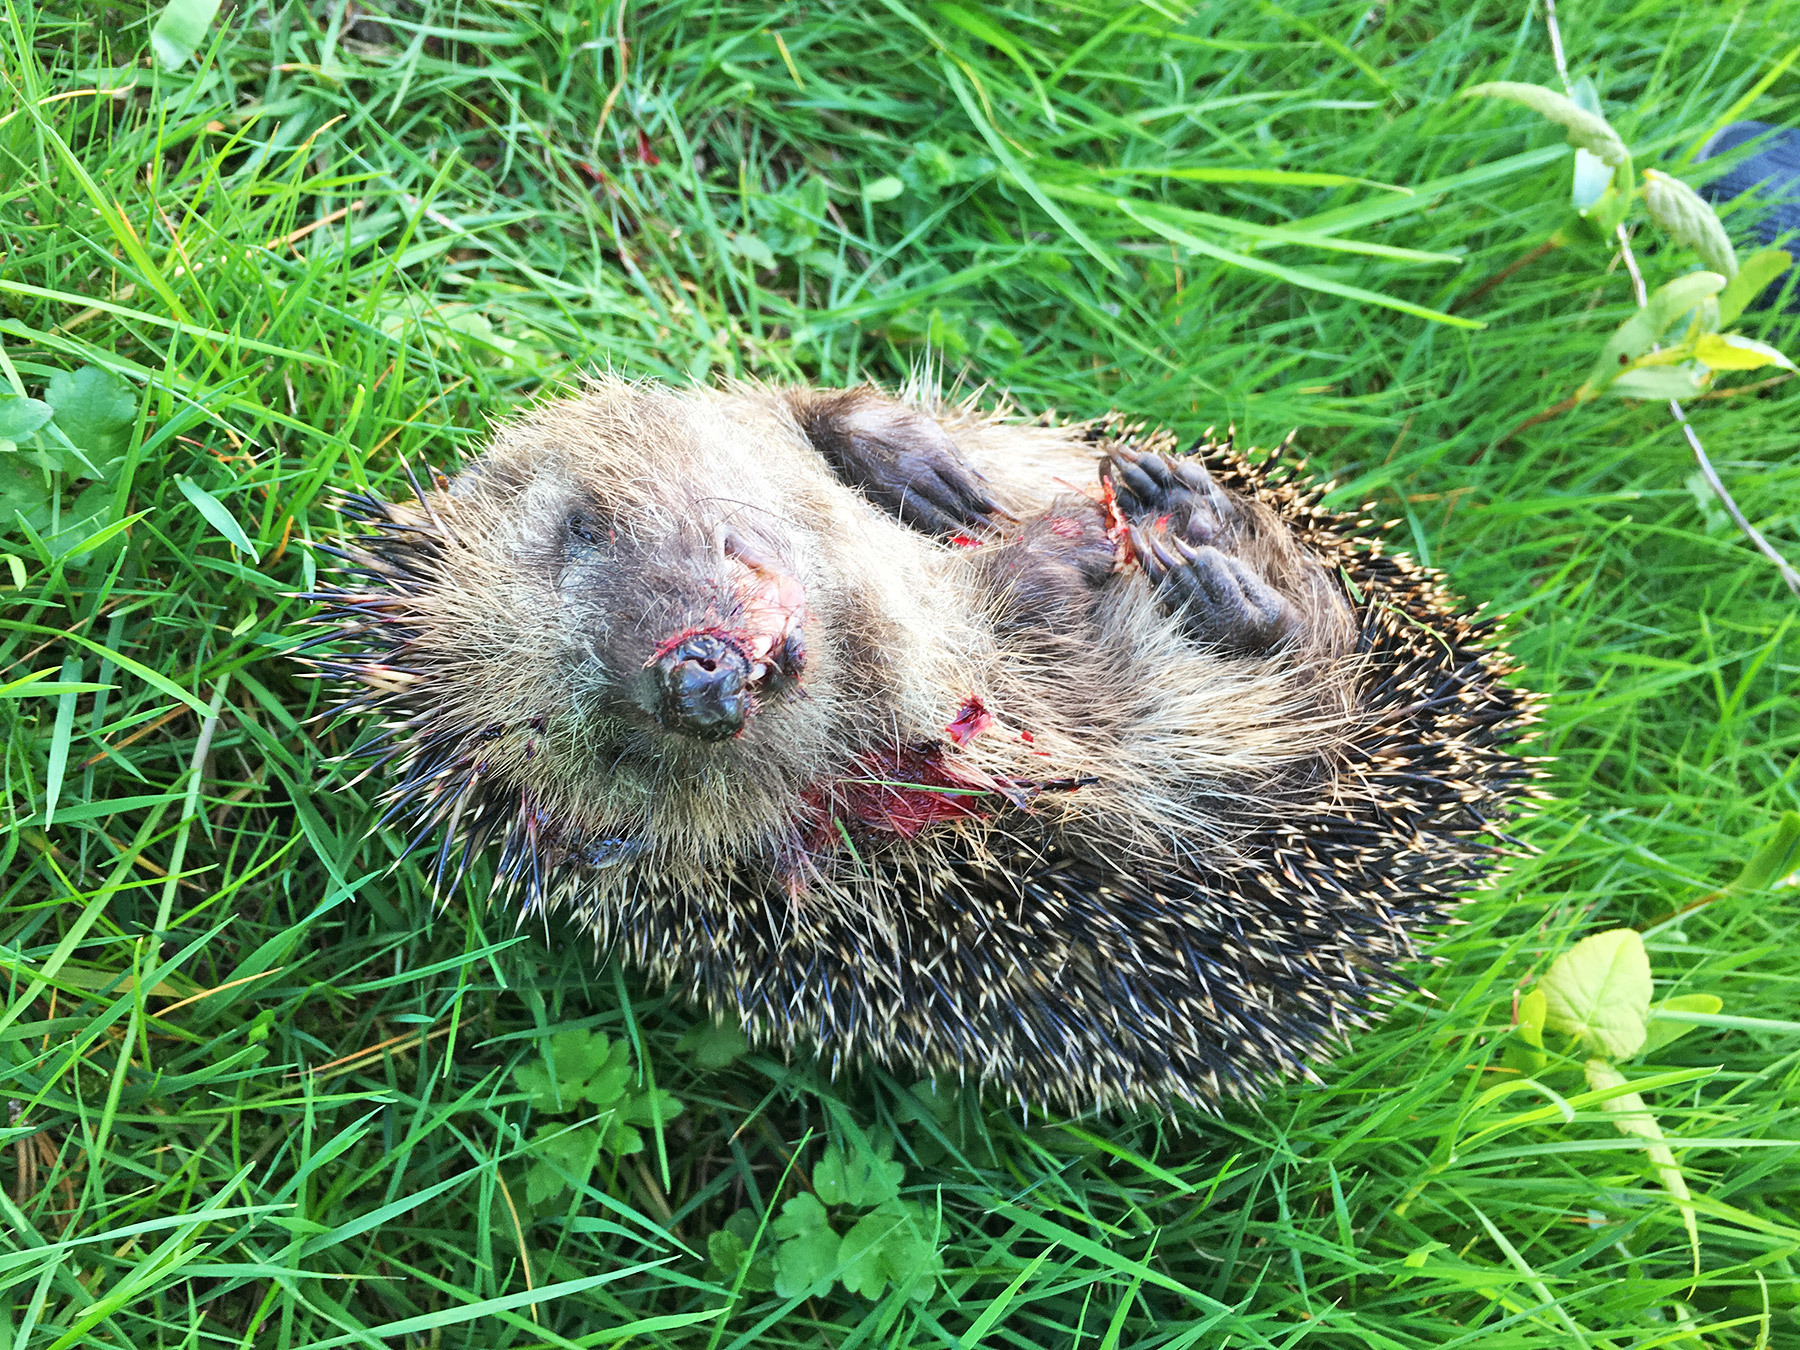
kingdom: Animalia
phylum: Chordata
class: Mammalia
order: Erinaceomorpha
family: Erinaceidae
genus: Erinaceus
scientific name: Erinaceus europaeus
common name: West european hedgehog
